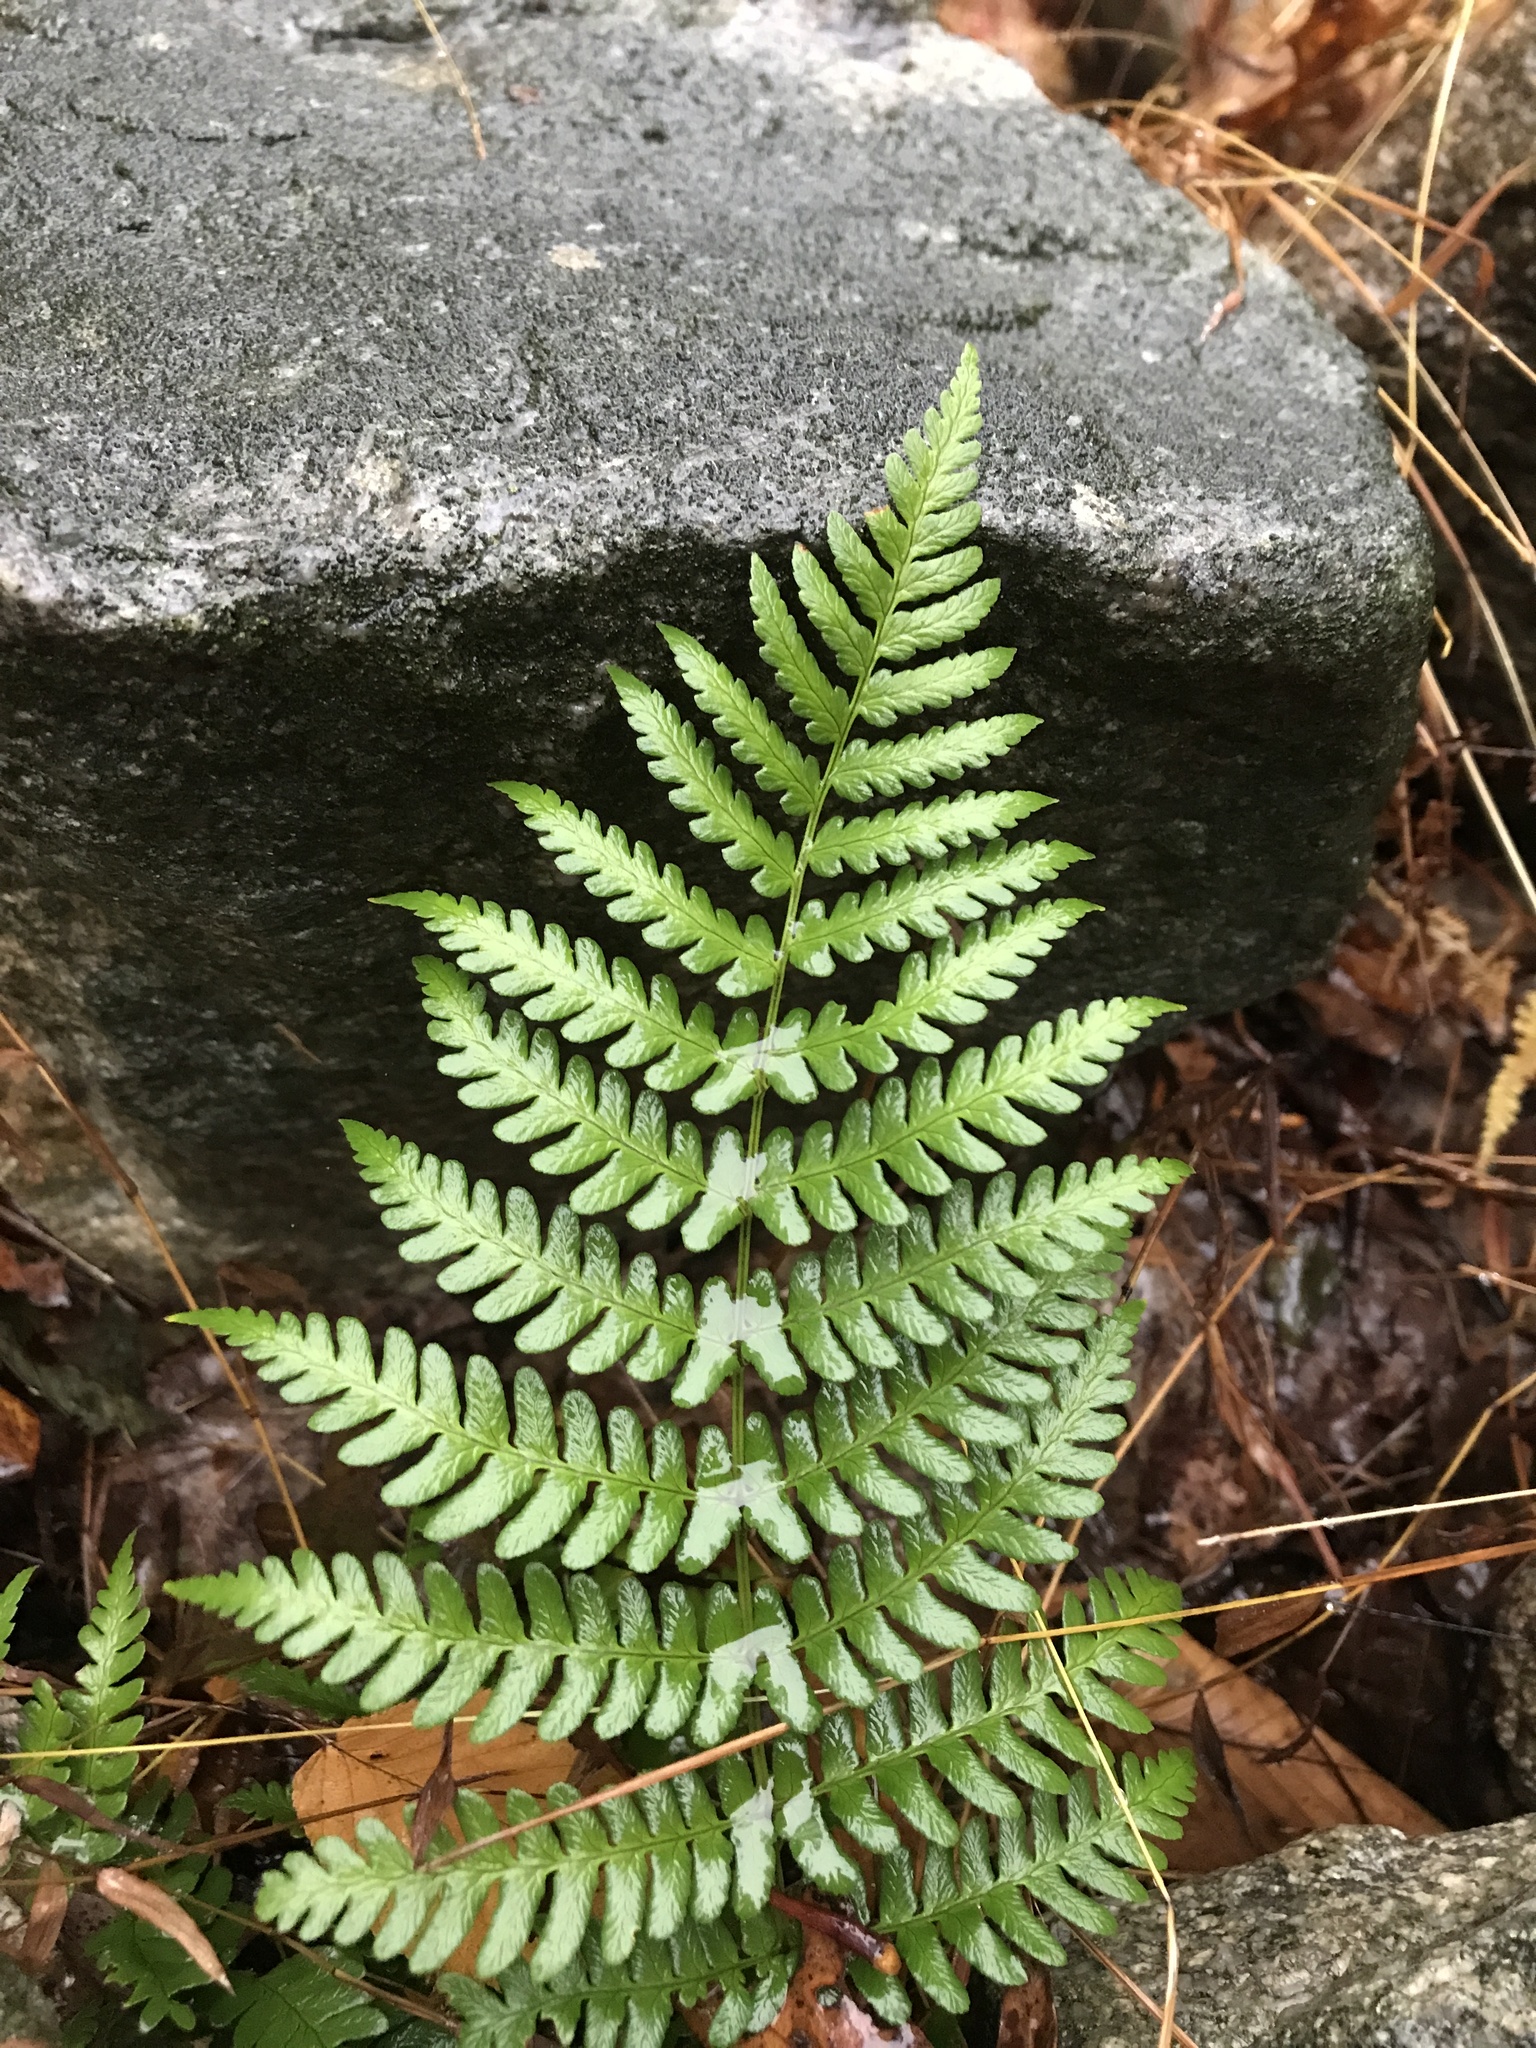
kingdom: Plantae
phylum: Tracheophyta
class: Polypodiopsida
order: Osmundales
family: Osmundaceae
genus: Osmundastrum
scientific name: Osmundastrum cinnamomeum
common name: Cinnamon fern
